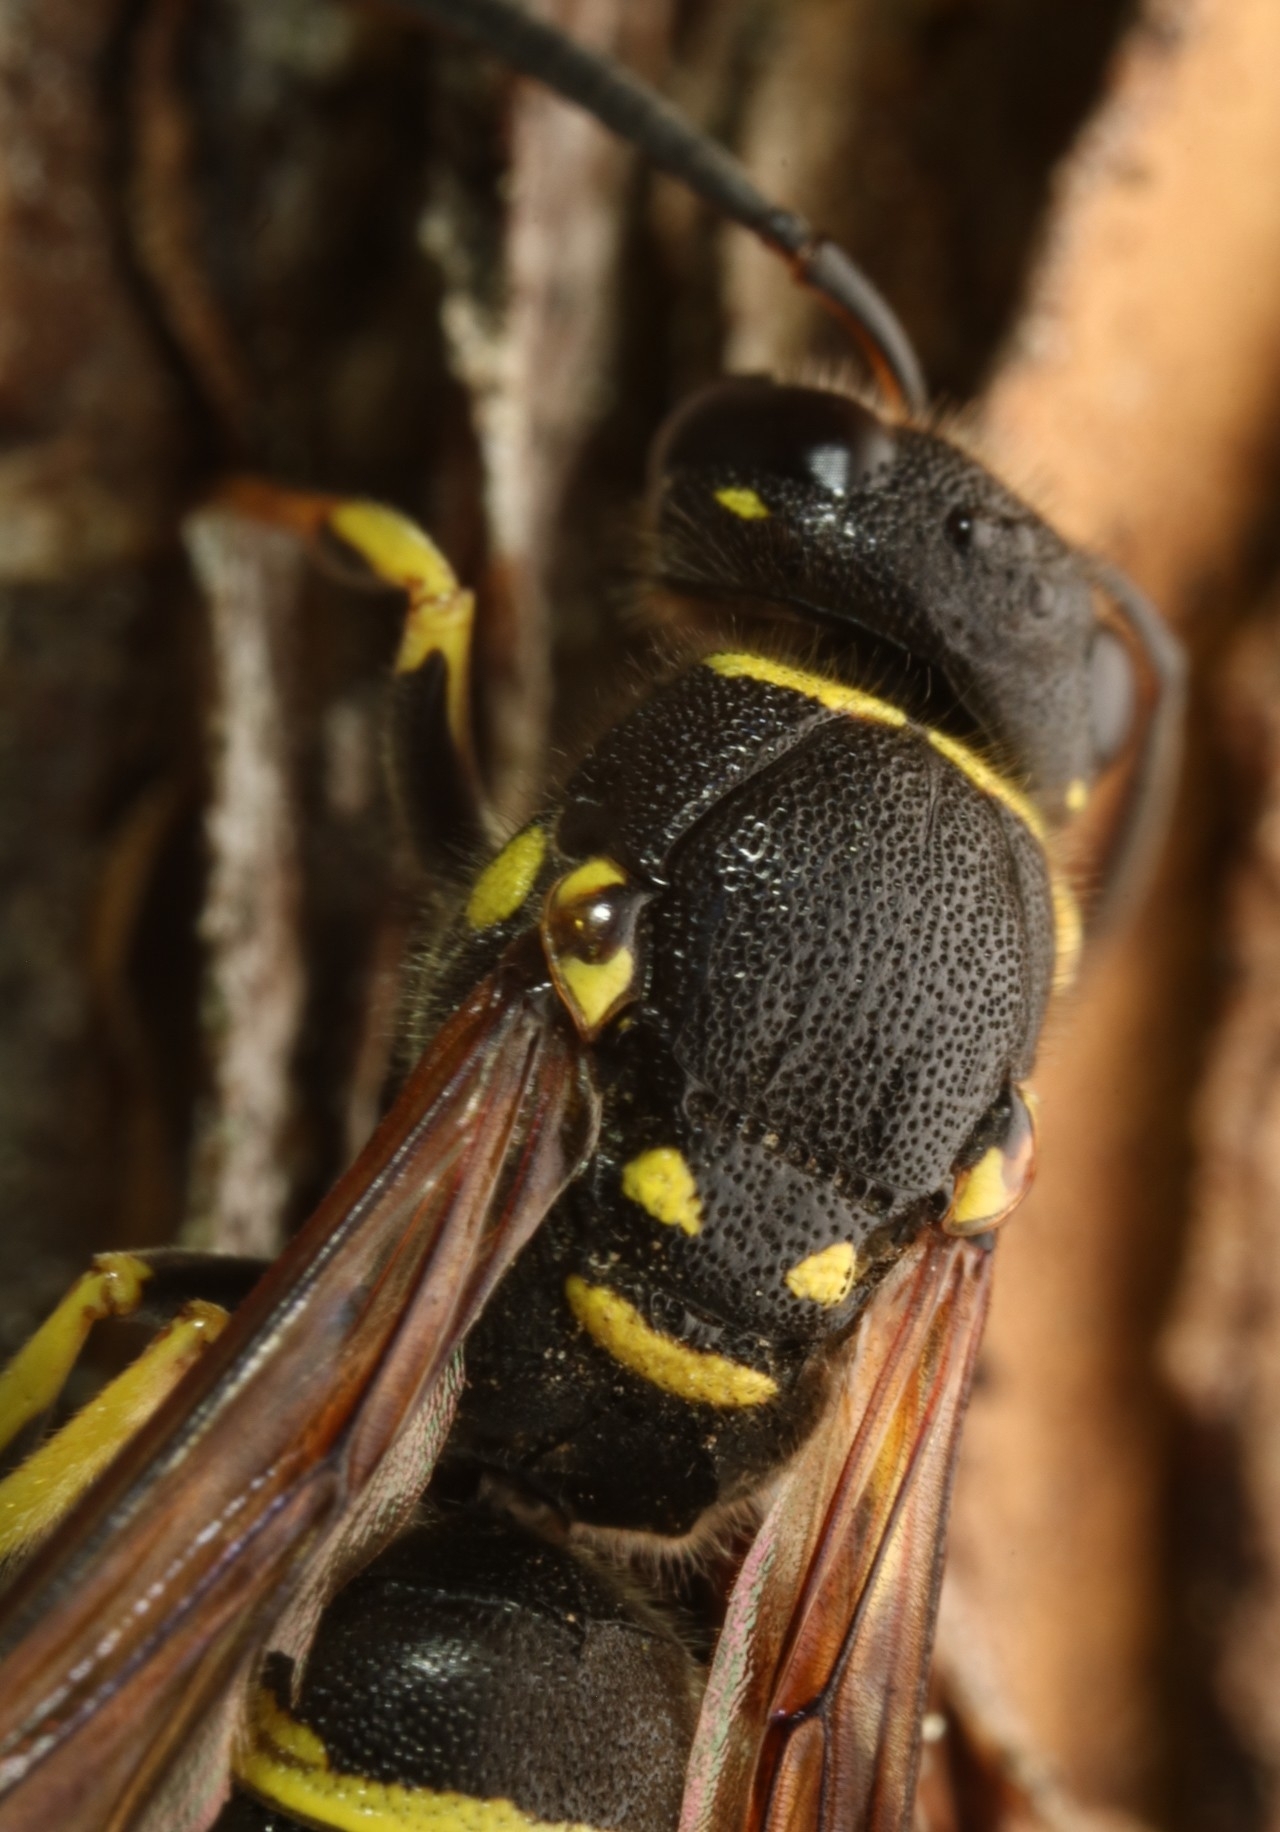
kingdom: Animalia
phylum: Arthropoda
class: Insecta
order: Hymenoptera
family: Vespidae
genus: Ancistrocerus
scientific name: Ancistrocerus adiabatus
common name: Bramble mason wasp
